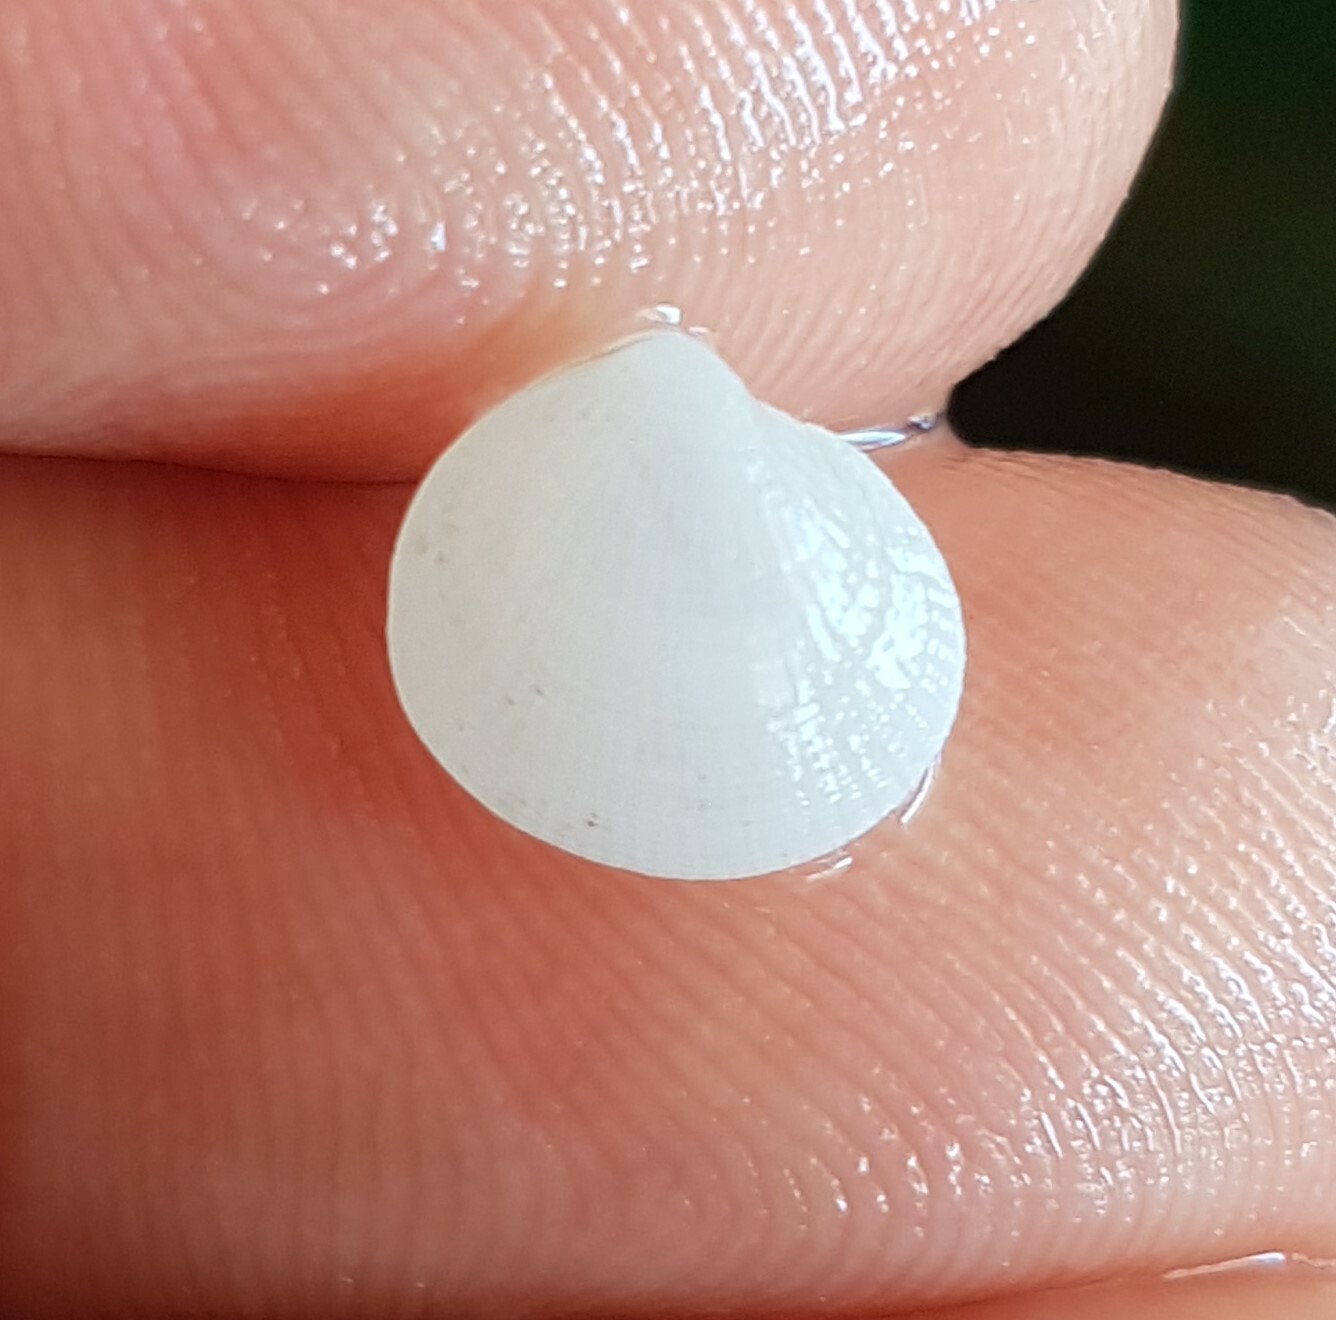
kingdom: Animalia
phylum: Mollusca
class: Bivalvia
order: Lucinida
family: Lucinidae
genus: Ctena
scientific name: Ctena decussata
